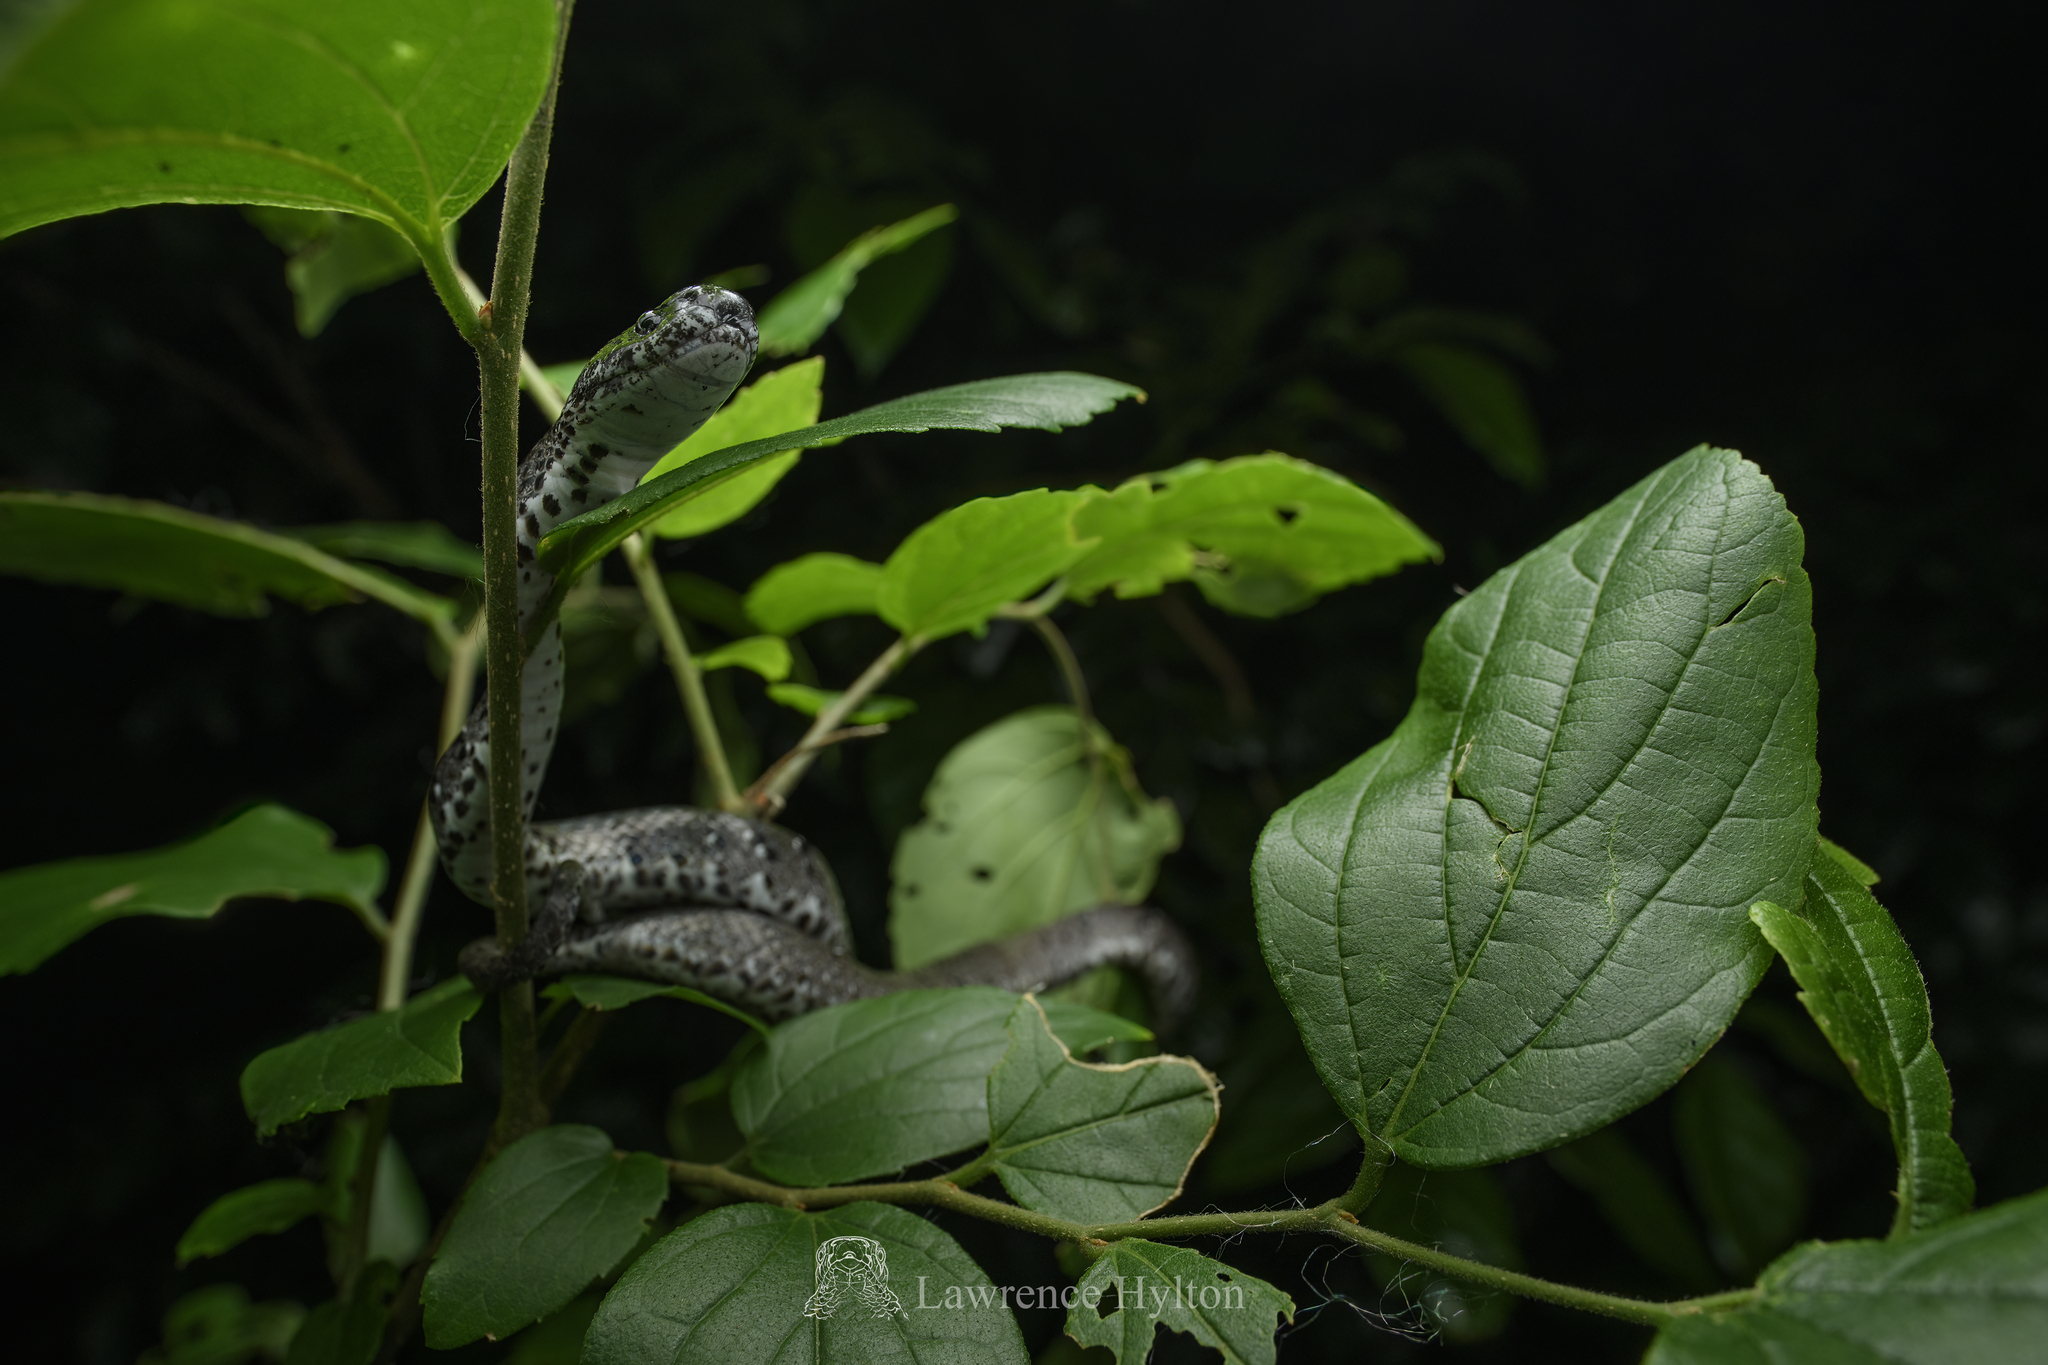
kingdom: Animalia
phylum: Chordata
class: Squamata
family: Pareidae
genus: Pareas
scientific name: Pareas margaritophorus
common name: Mountain slug snake
